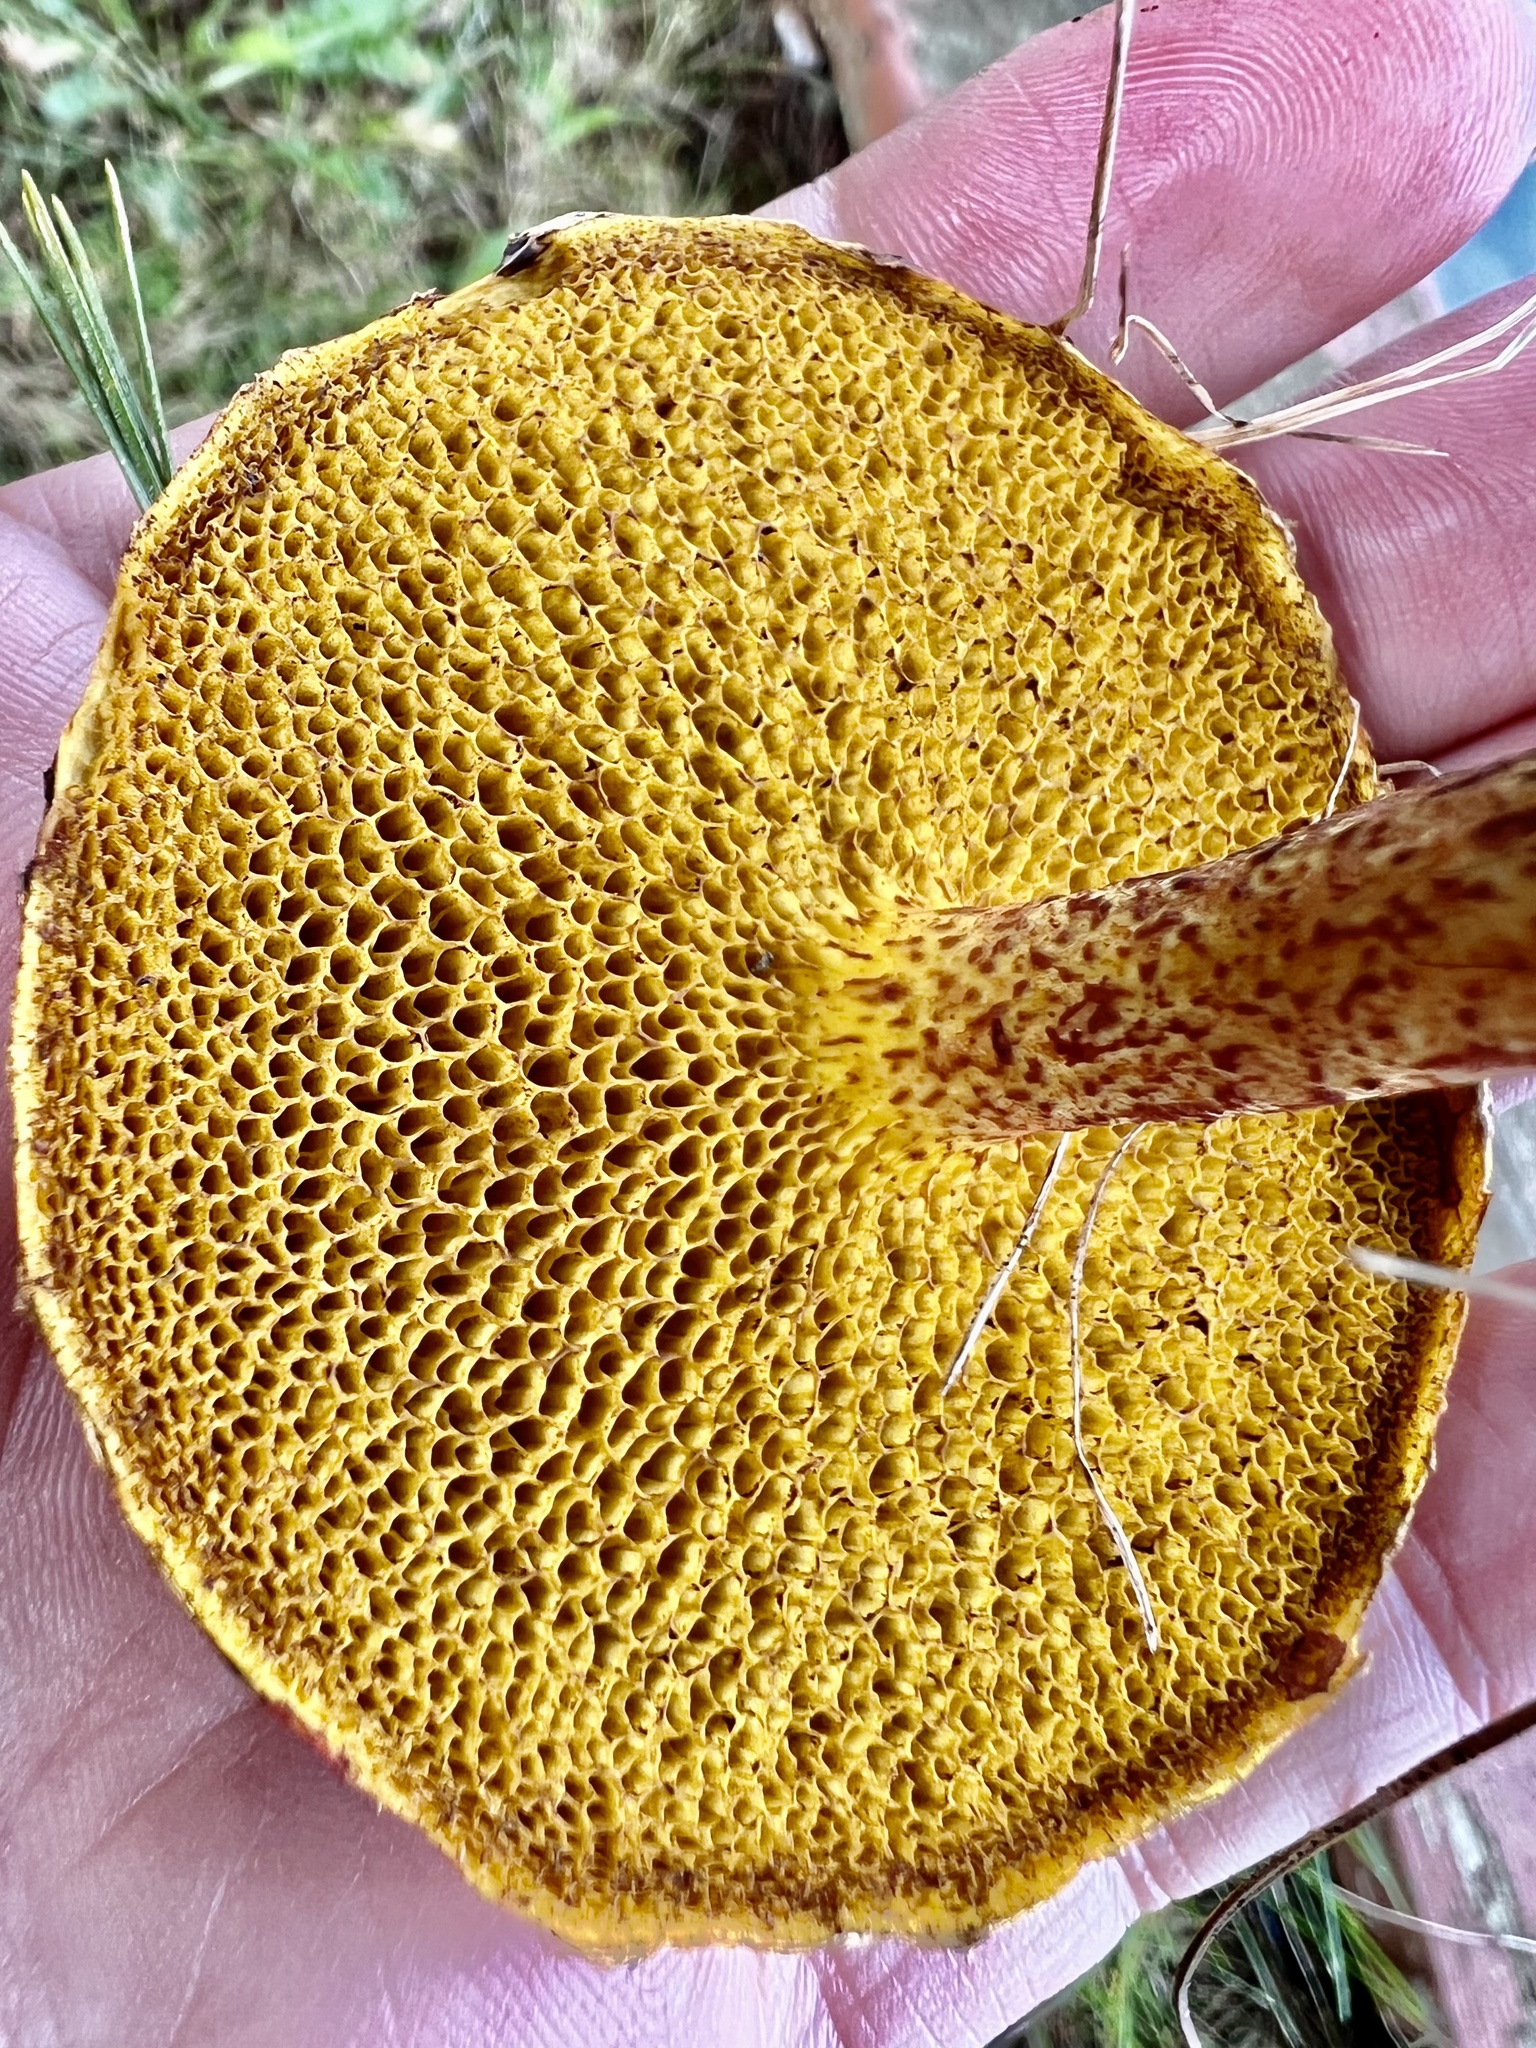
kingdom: Fungi
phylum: Basidiomycota
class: Agaricomycetes
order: Boletales
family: Suillaceae
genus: Suillus
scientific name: Suillus americanus
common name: Chicken fat mushroom
